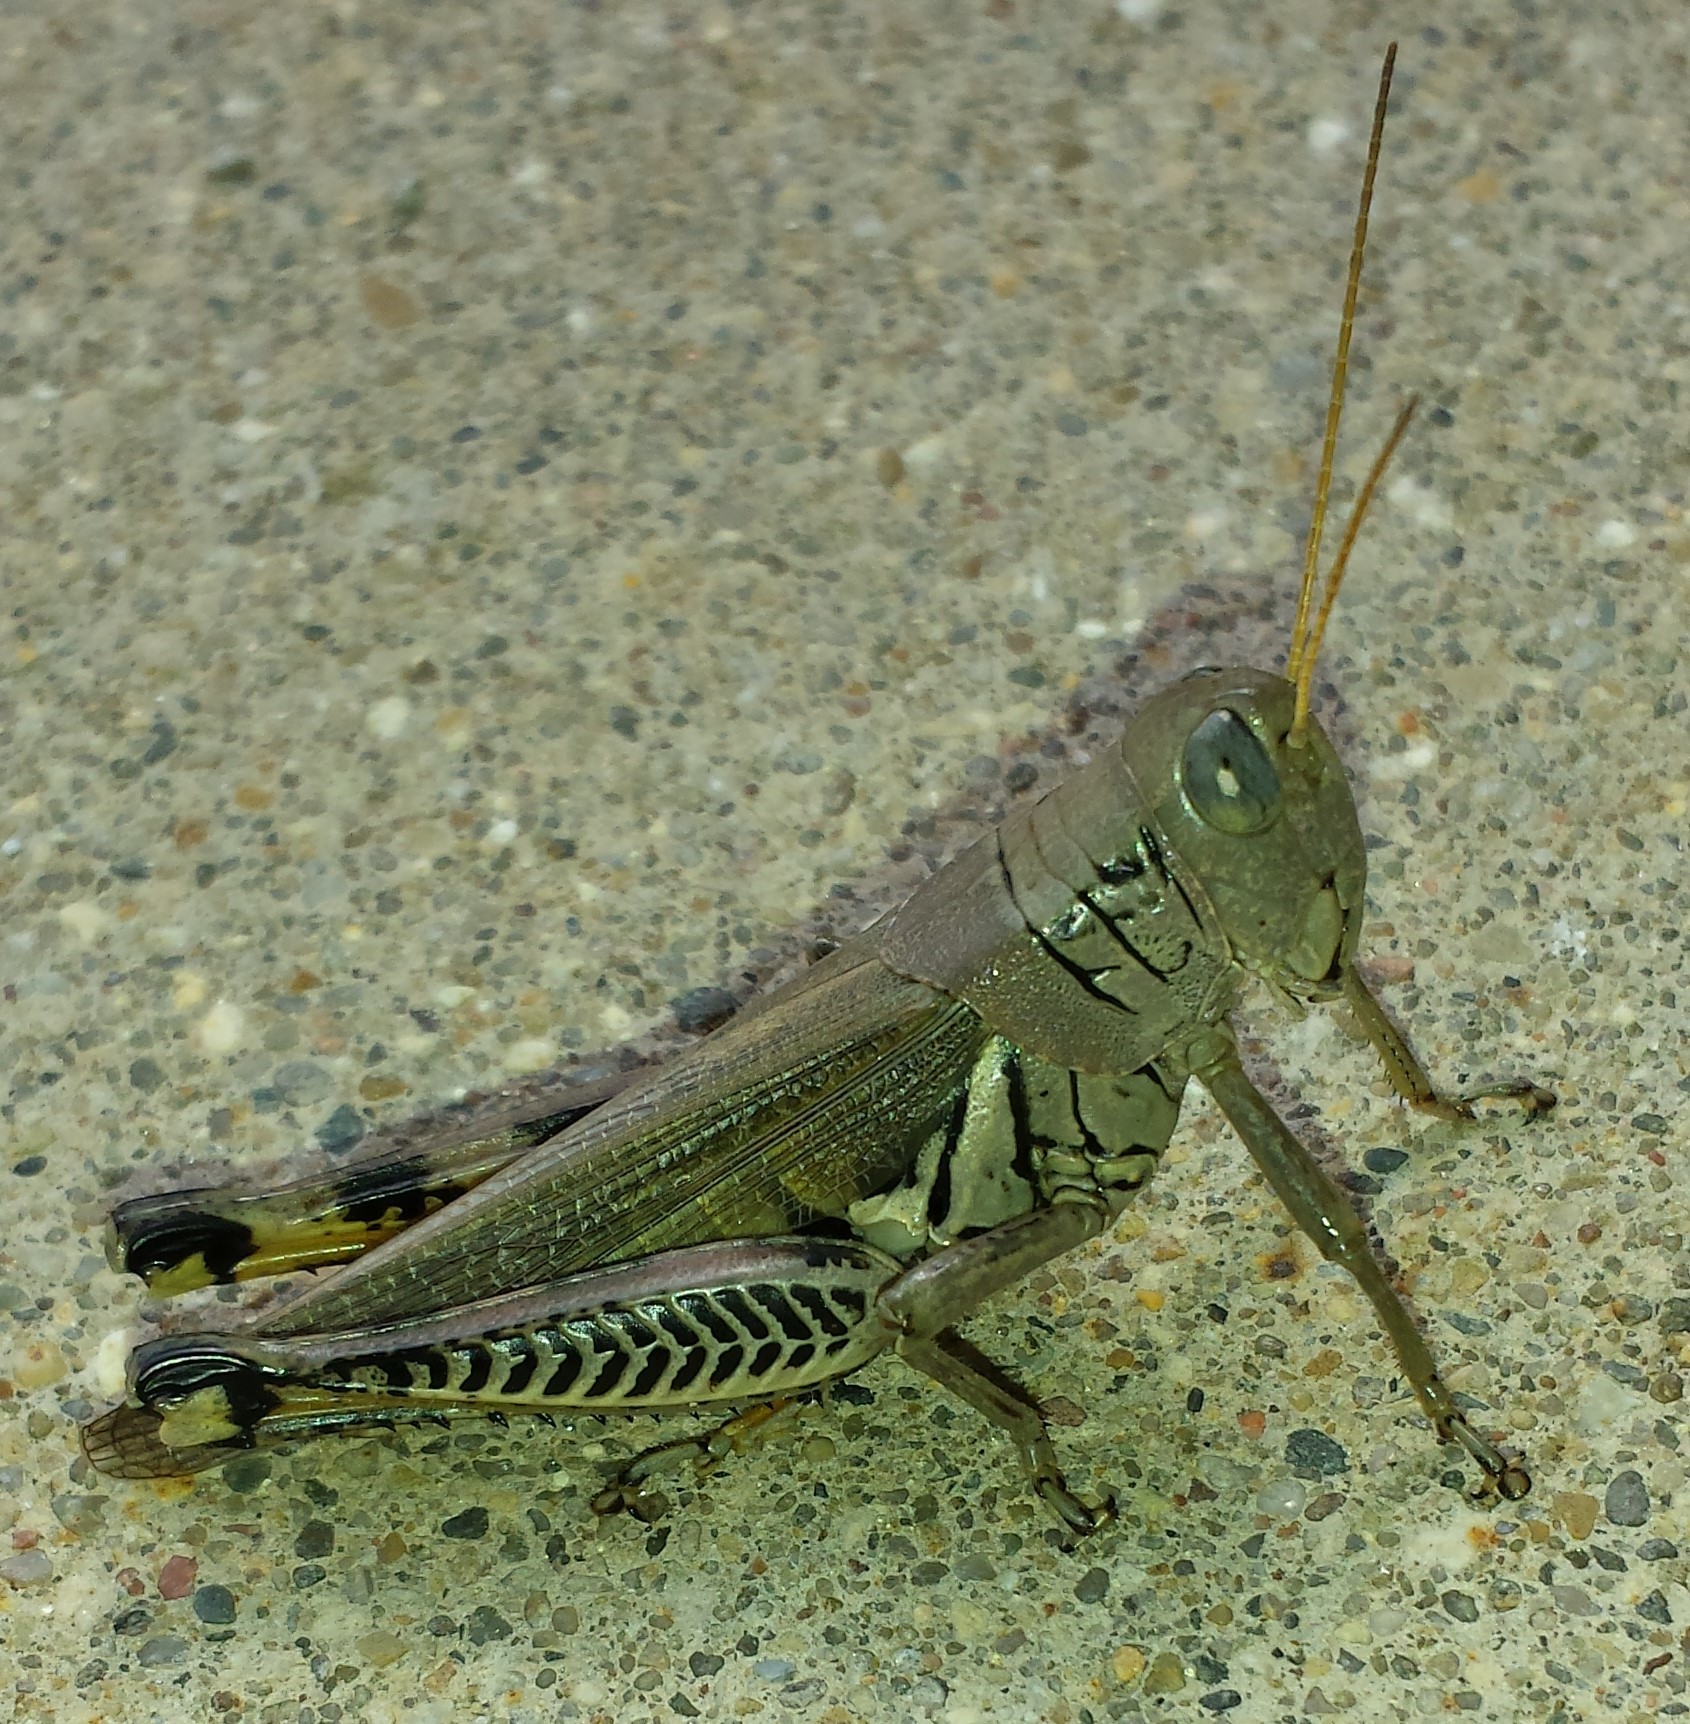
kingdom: Animalia
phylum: Arthropoda
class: Insecta
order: Orthoptera
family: Acrididae
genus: Melanoplus
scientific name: Melanoplus differentialis
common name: Differential grasshopper
